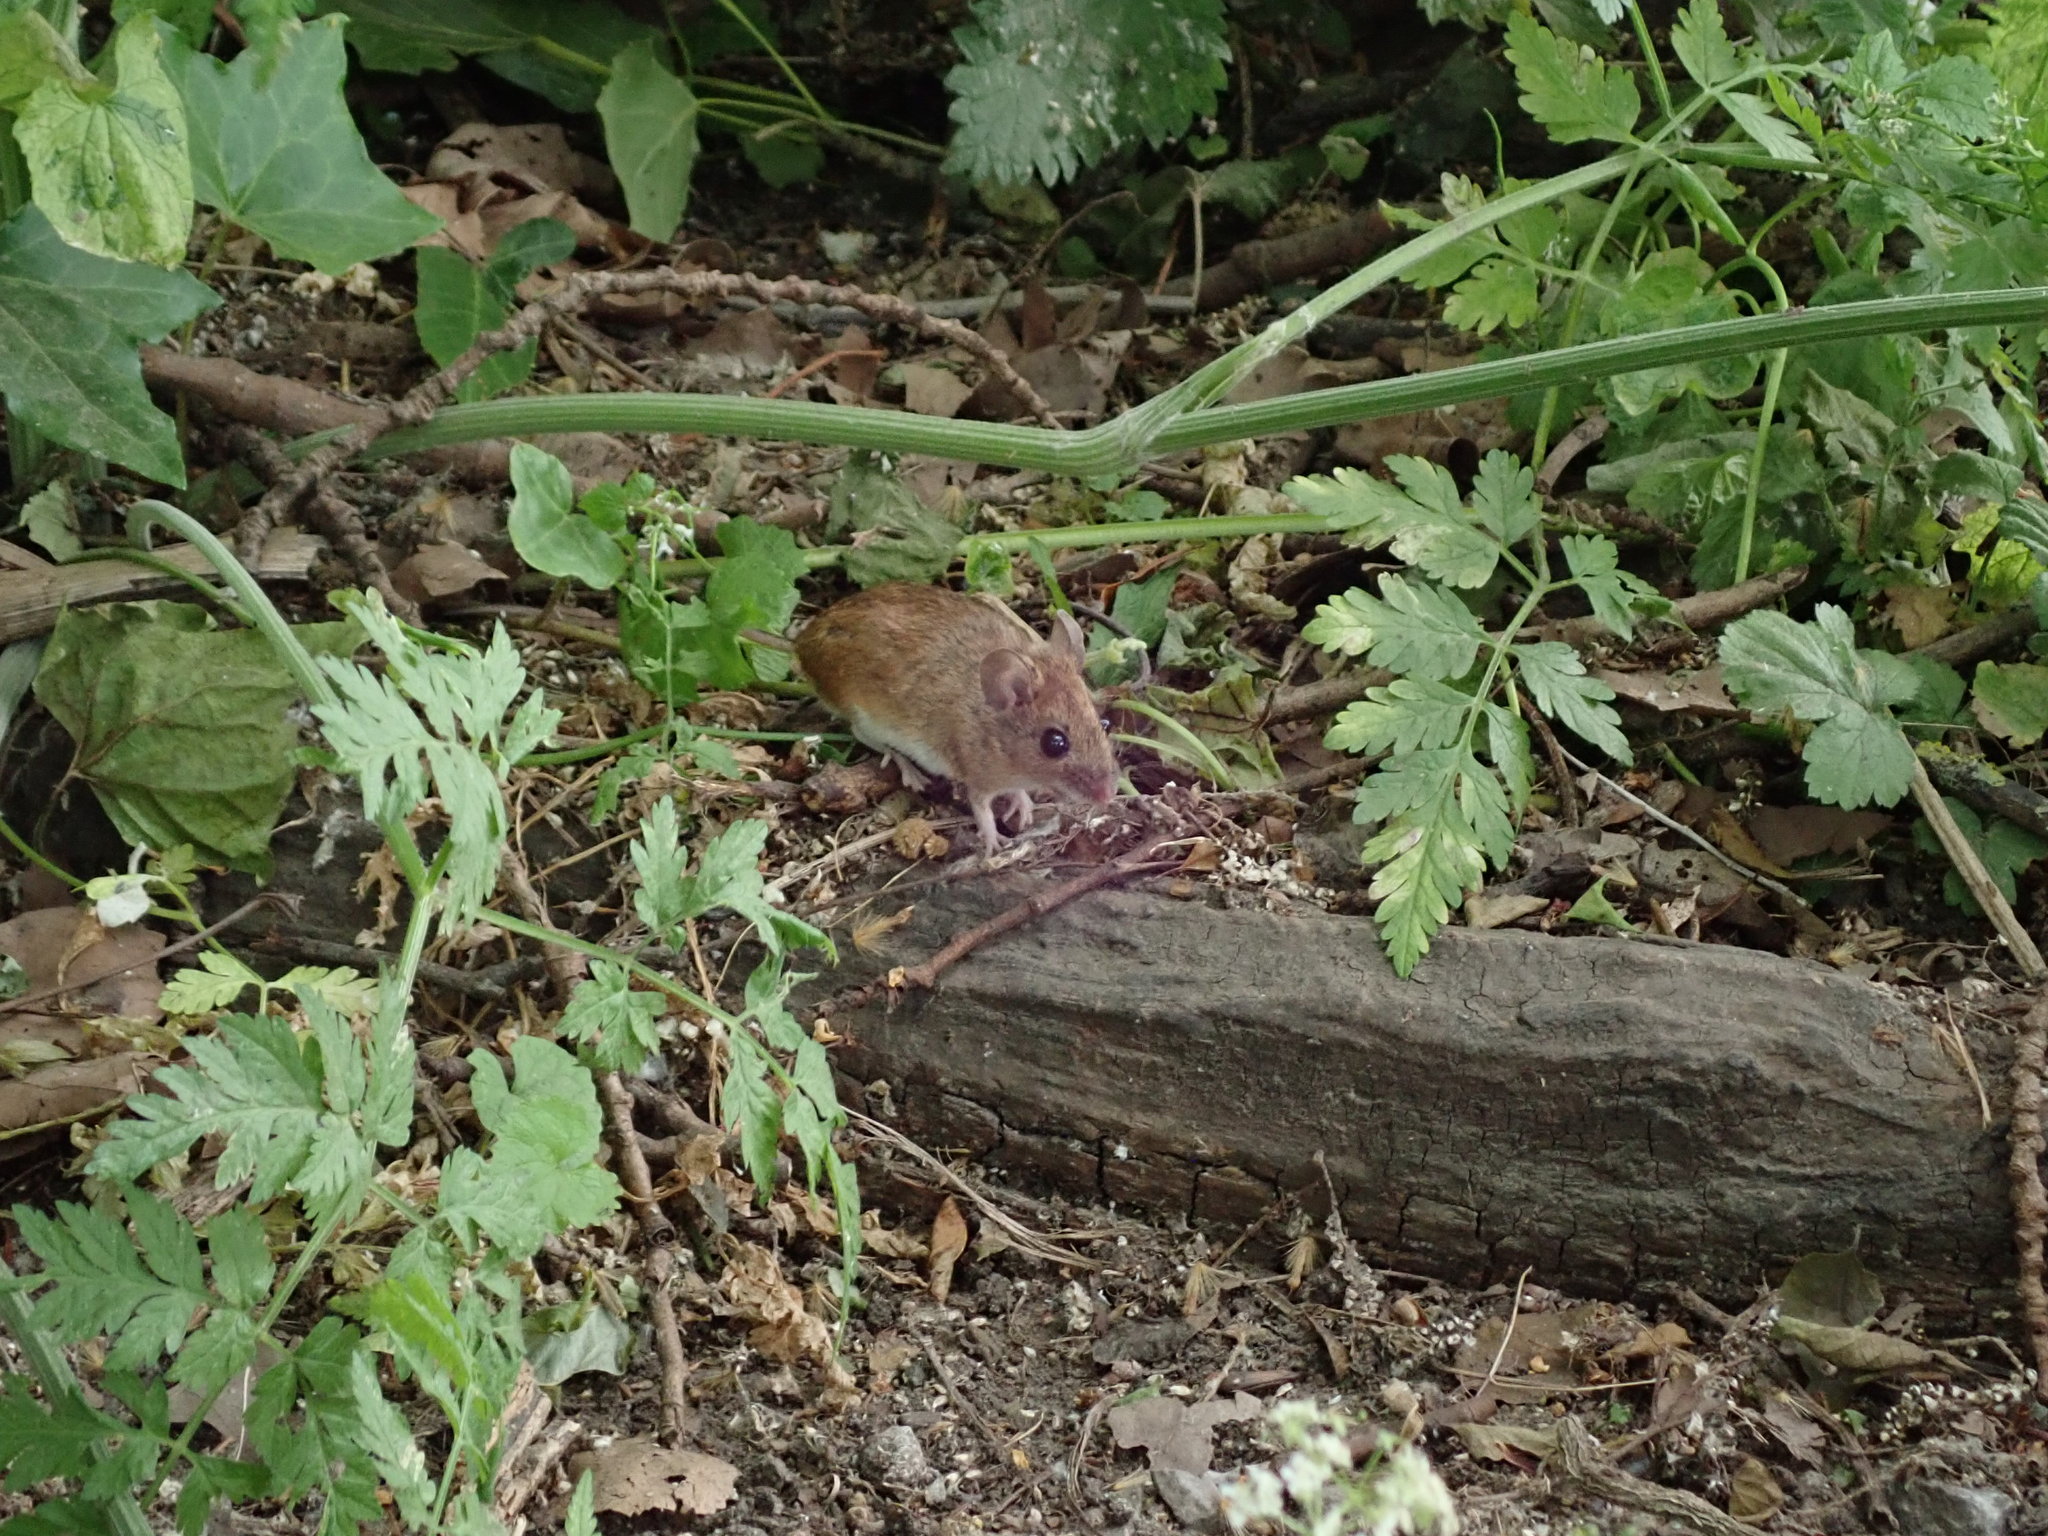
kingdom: Animalia
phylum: Chordata
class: Mammalia
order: Rodentia
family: Muridae
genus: Apodemus
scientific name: Apodemus sylvaticus
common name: Wood mouse
